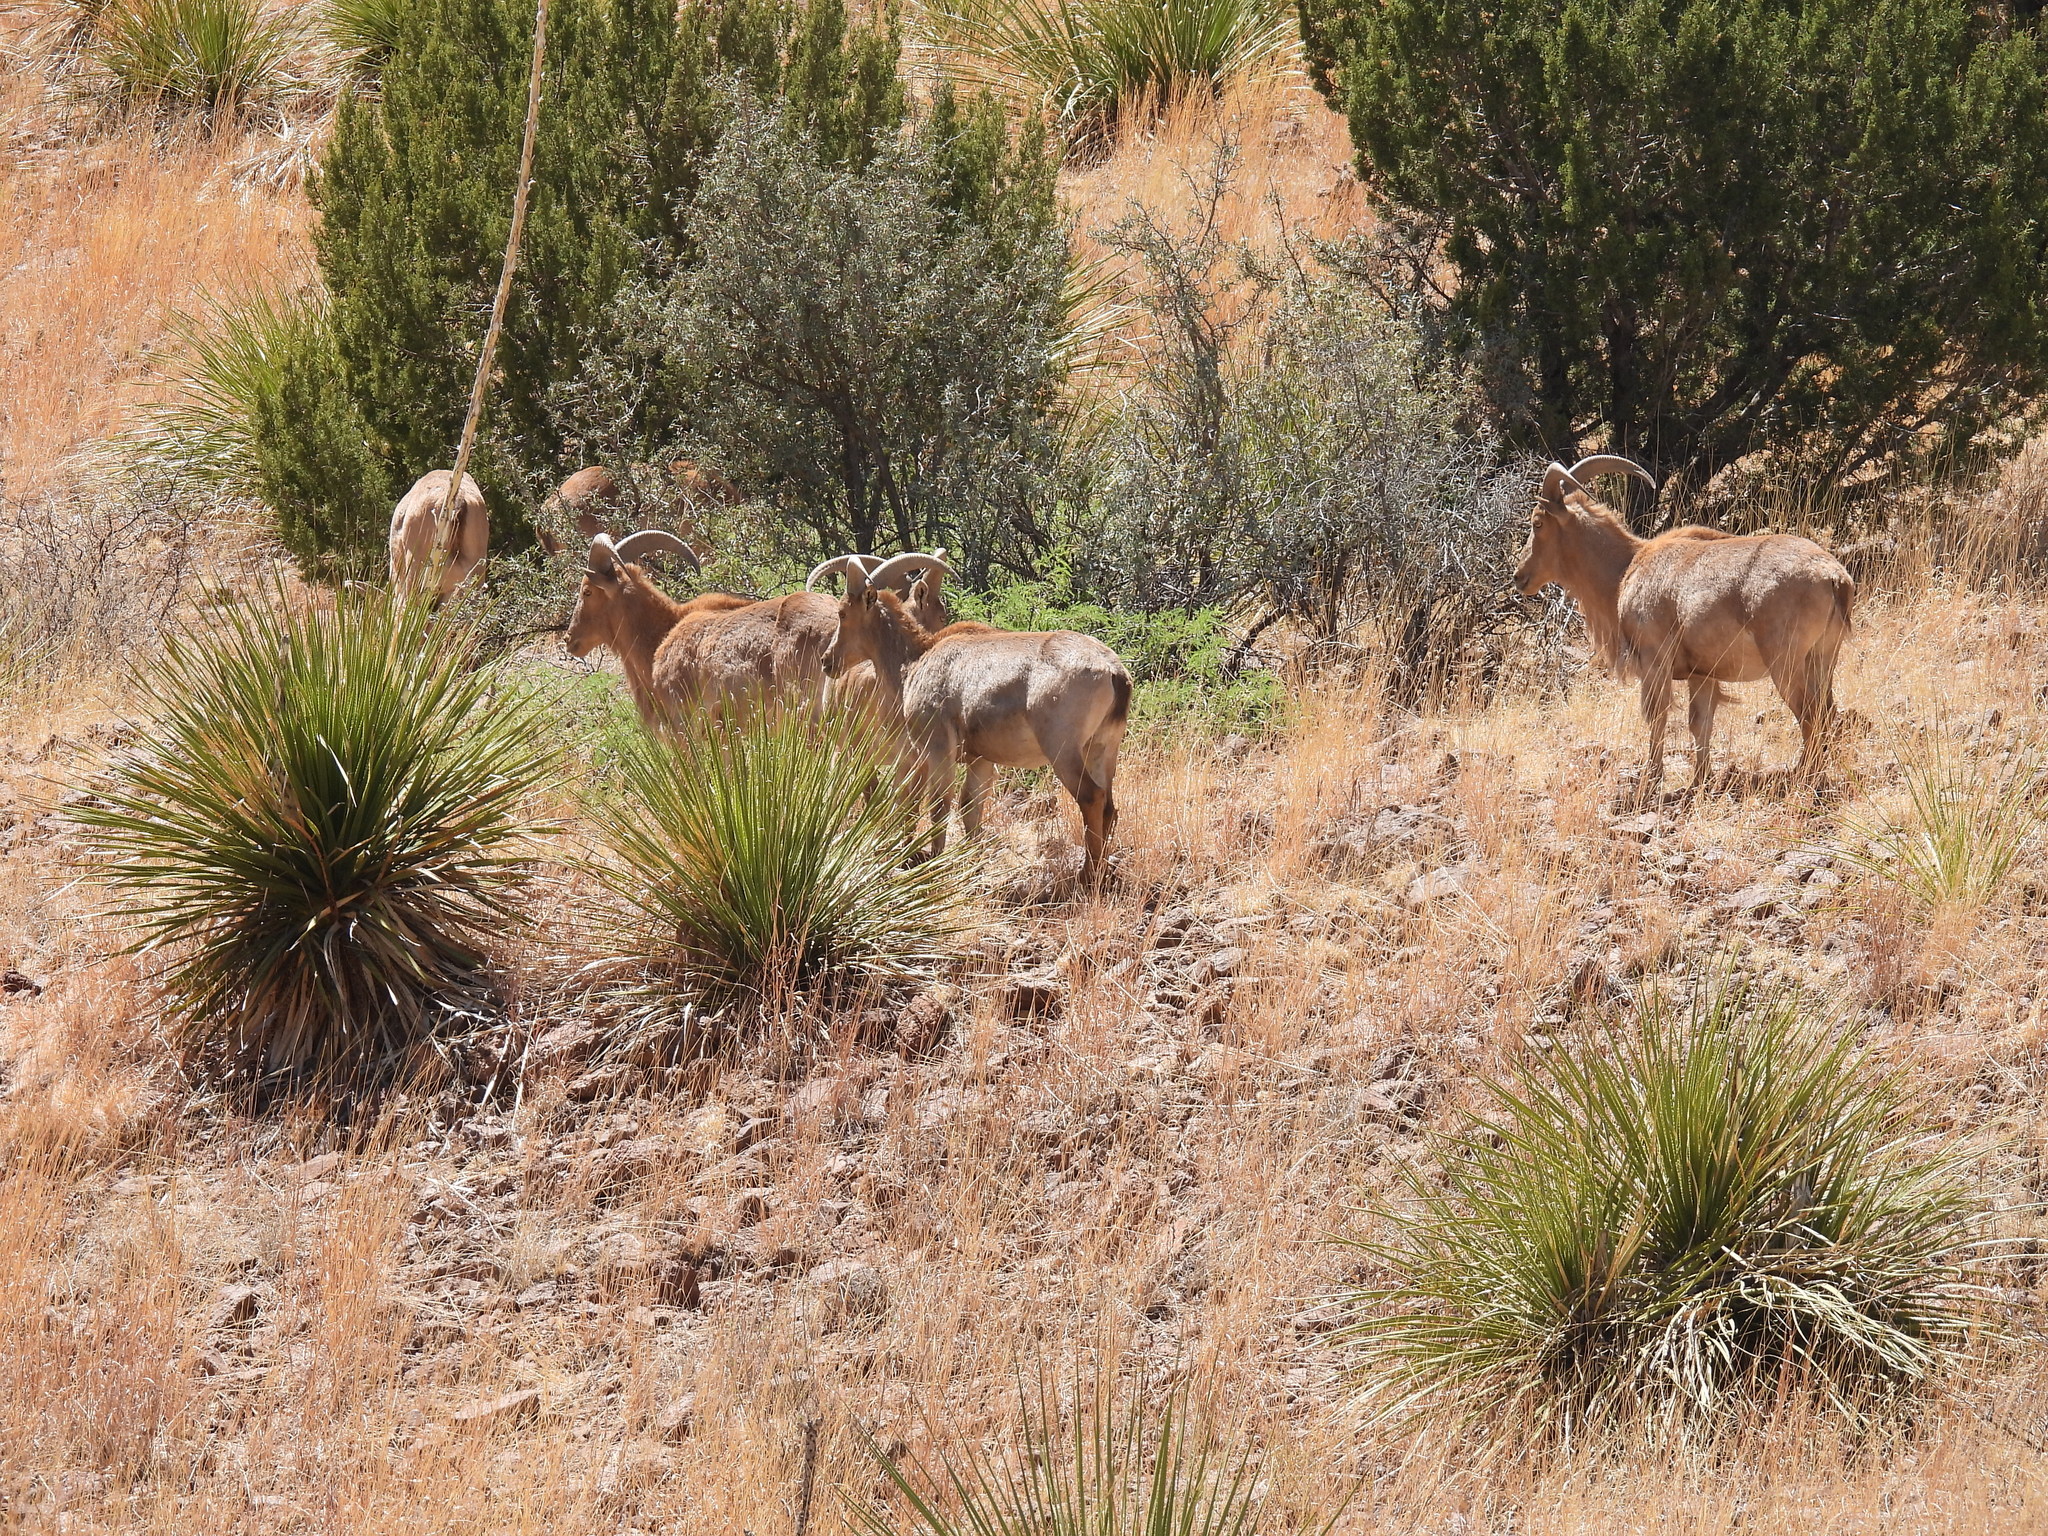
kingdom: Animalia
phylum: Chordata
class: Mammalia
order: Artiodactyla
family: Bovidae
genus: Ammotragus
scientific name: Ammotragus lervia
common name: Barbary sheep
